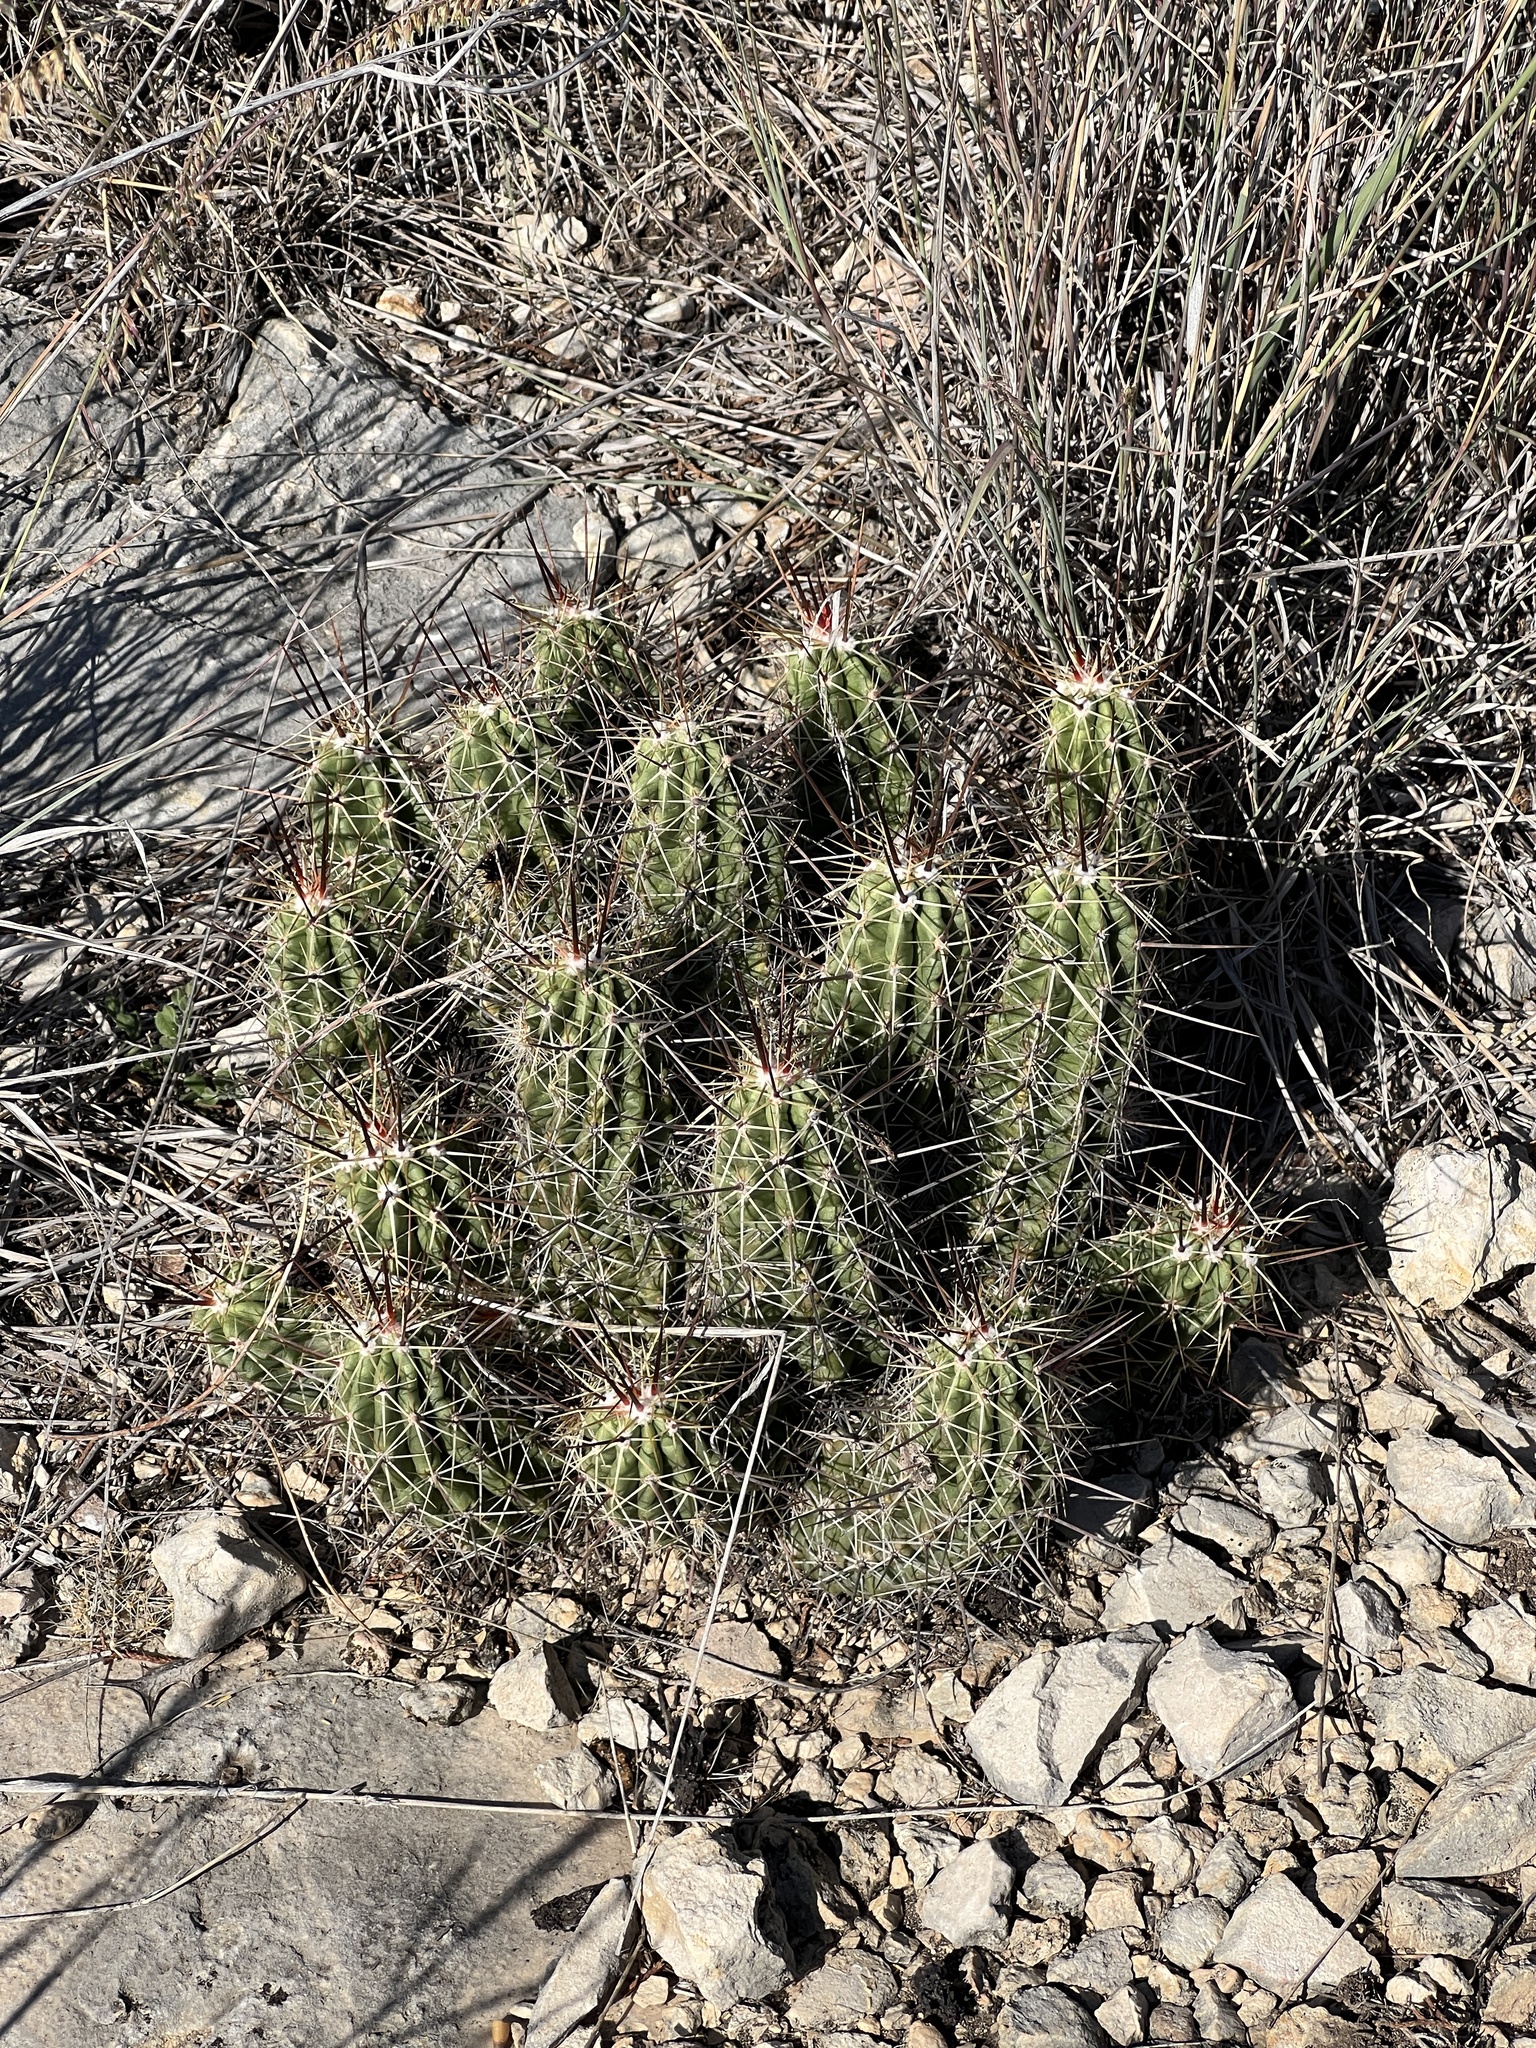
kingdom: Plantae
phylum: Tracheophyta
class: Magnoliopsida
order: Caryophyllales
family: Cactaceae
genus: Echinocereus
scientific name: Echinocereus enneacanthus
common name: Pitaya
